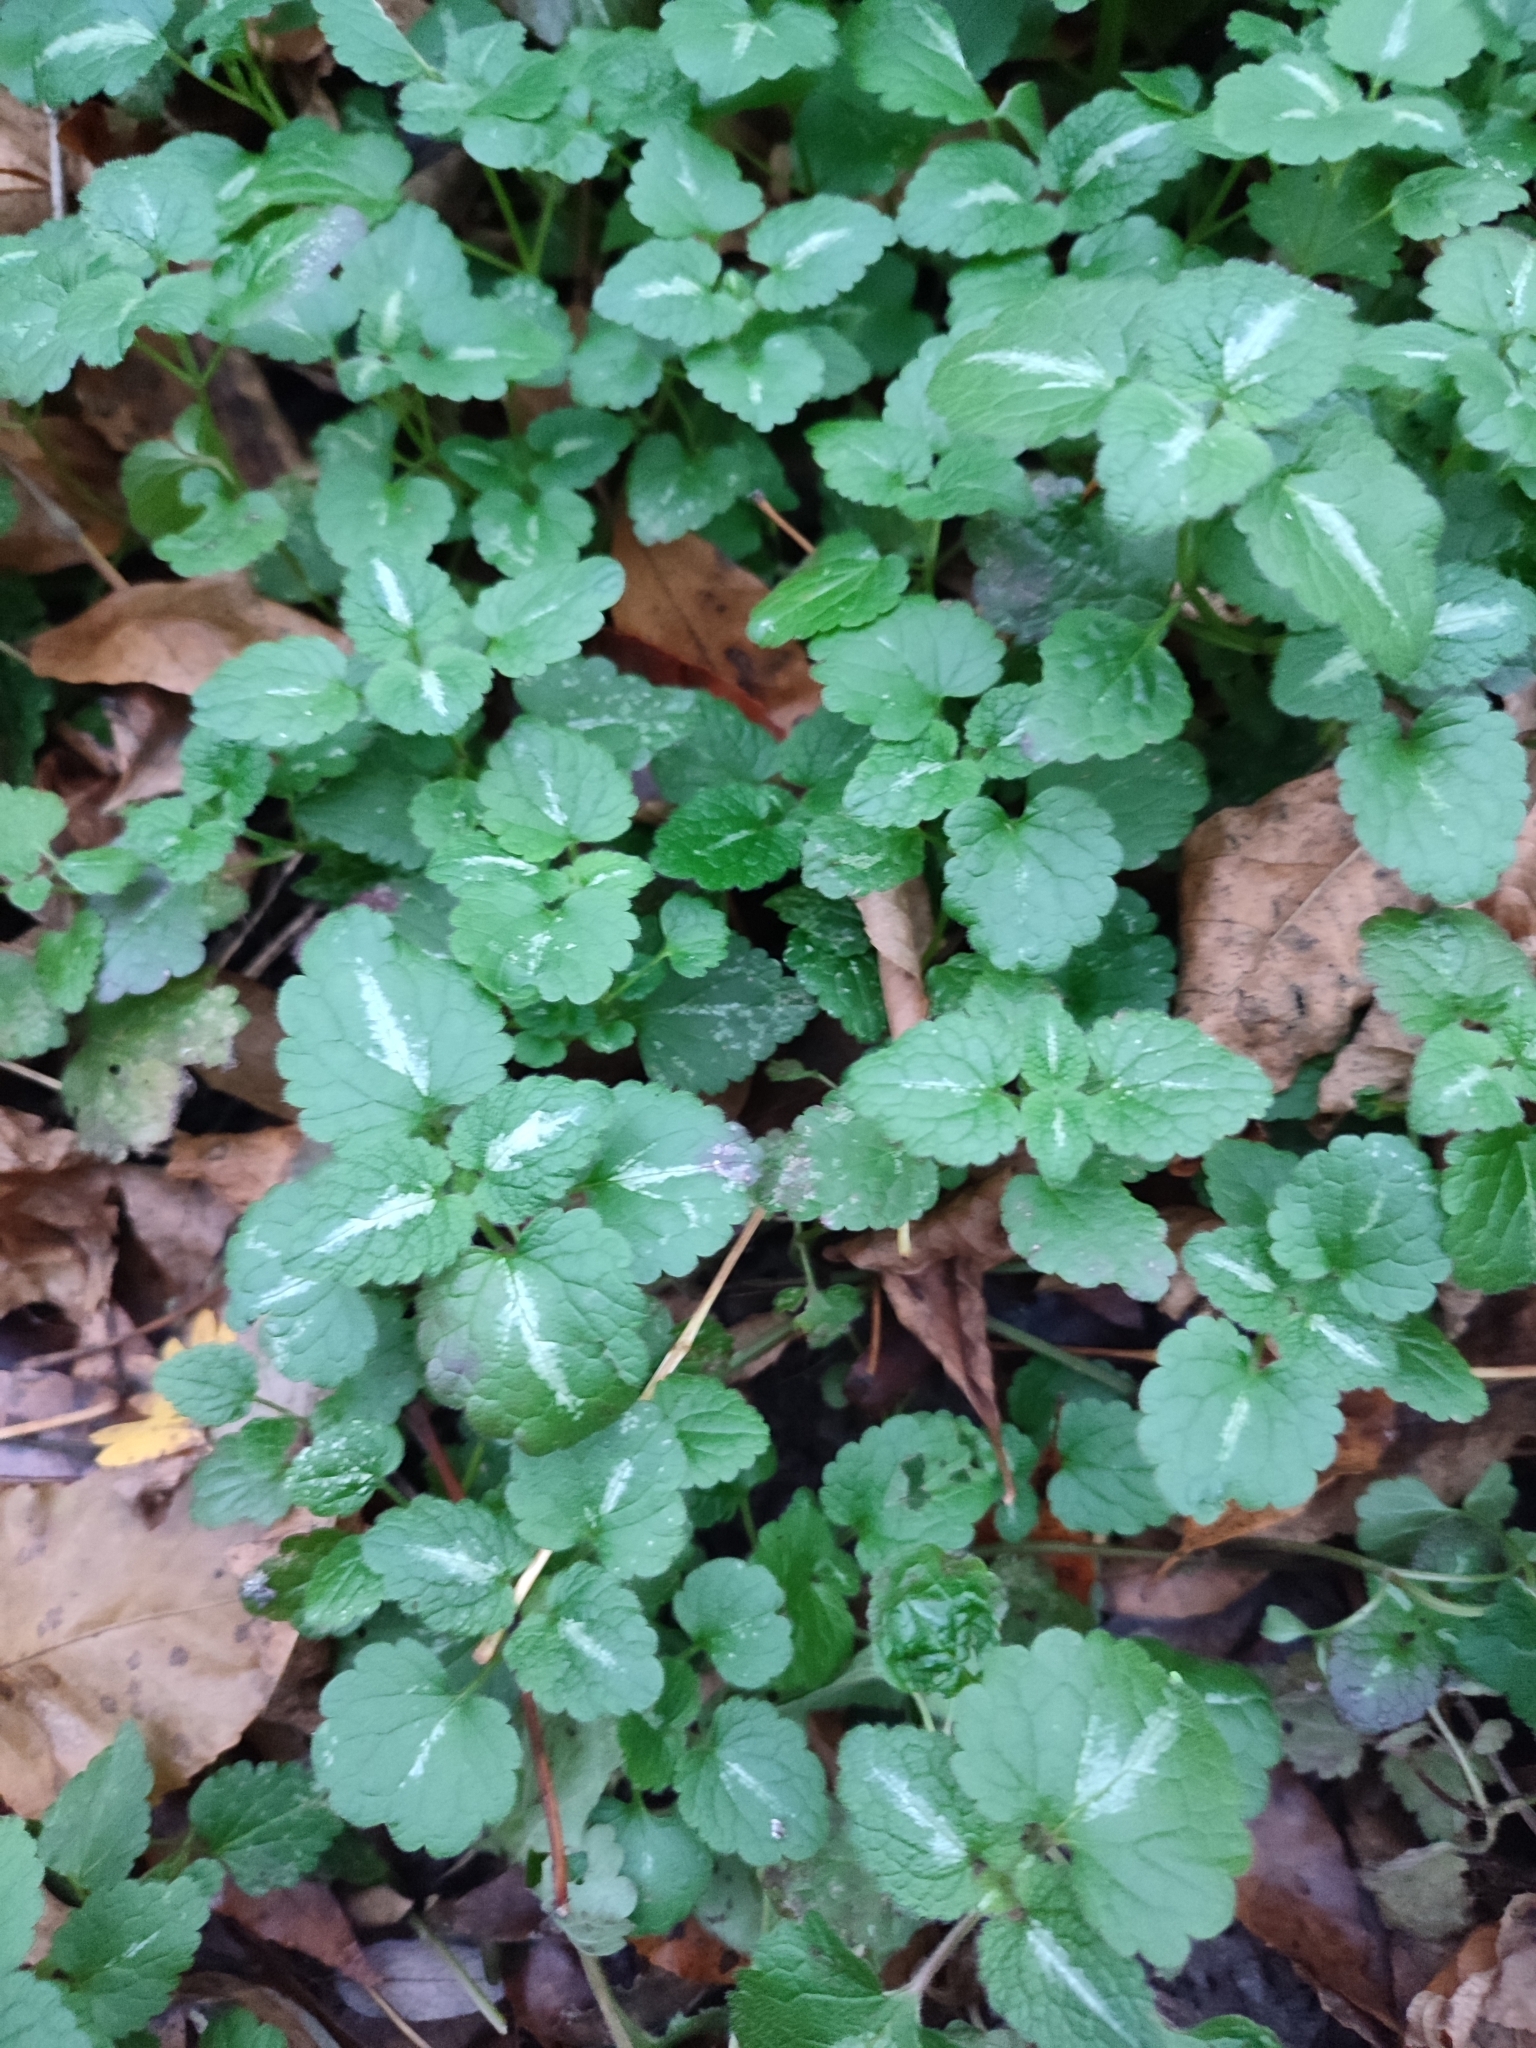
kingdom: Plantae
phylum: Tracheophyta
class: Magnoliopsida
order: Lamiales
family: Lamiaceae
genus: Lamium
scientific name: Lamium maculatum
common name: Spotted dead-nettle
